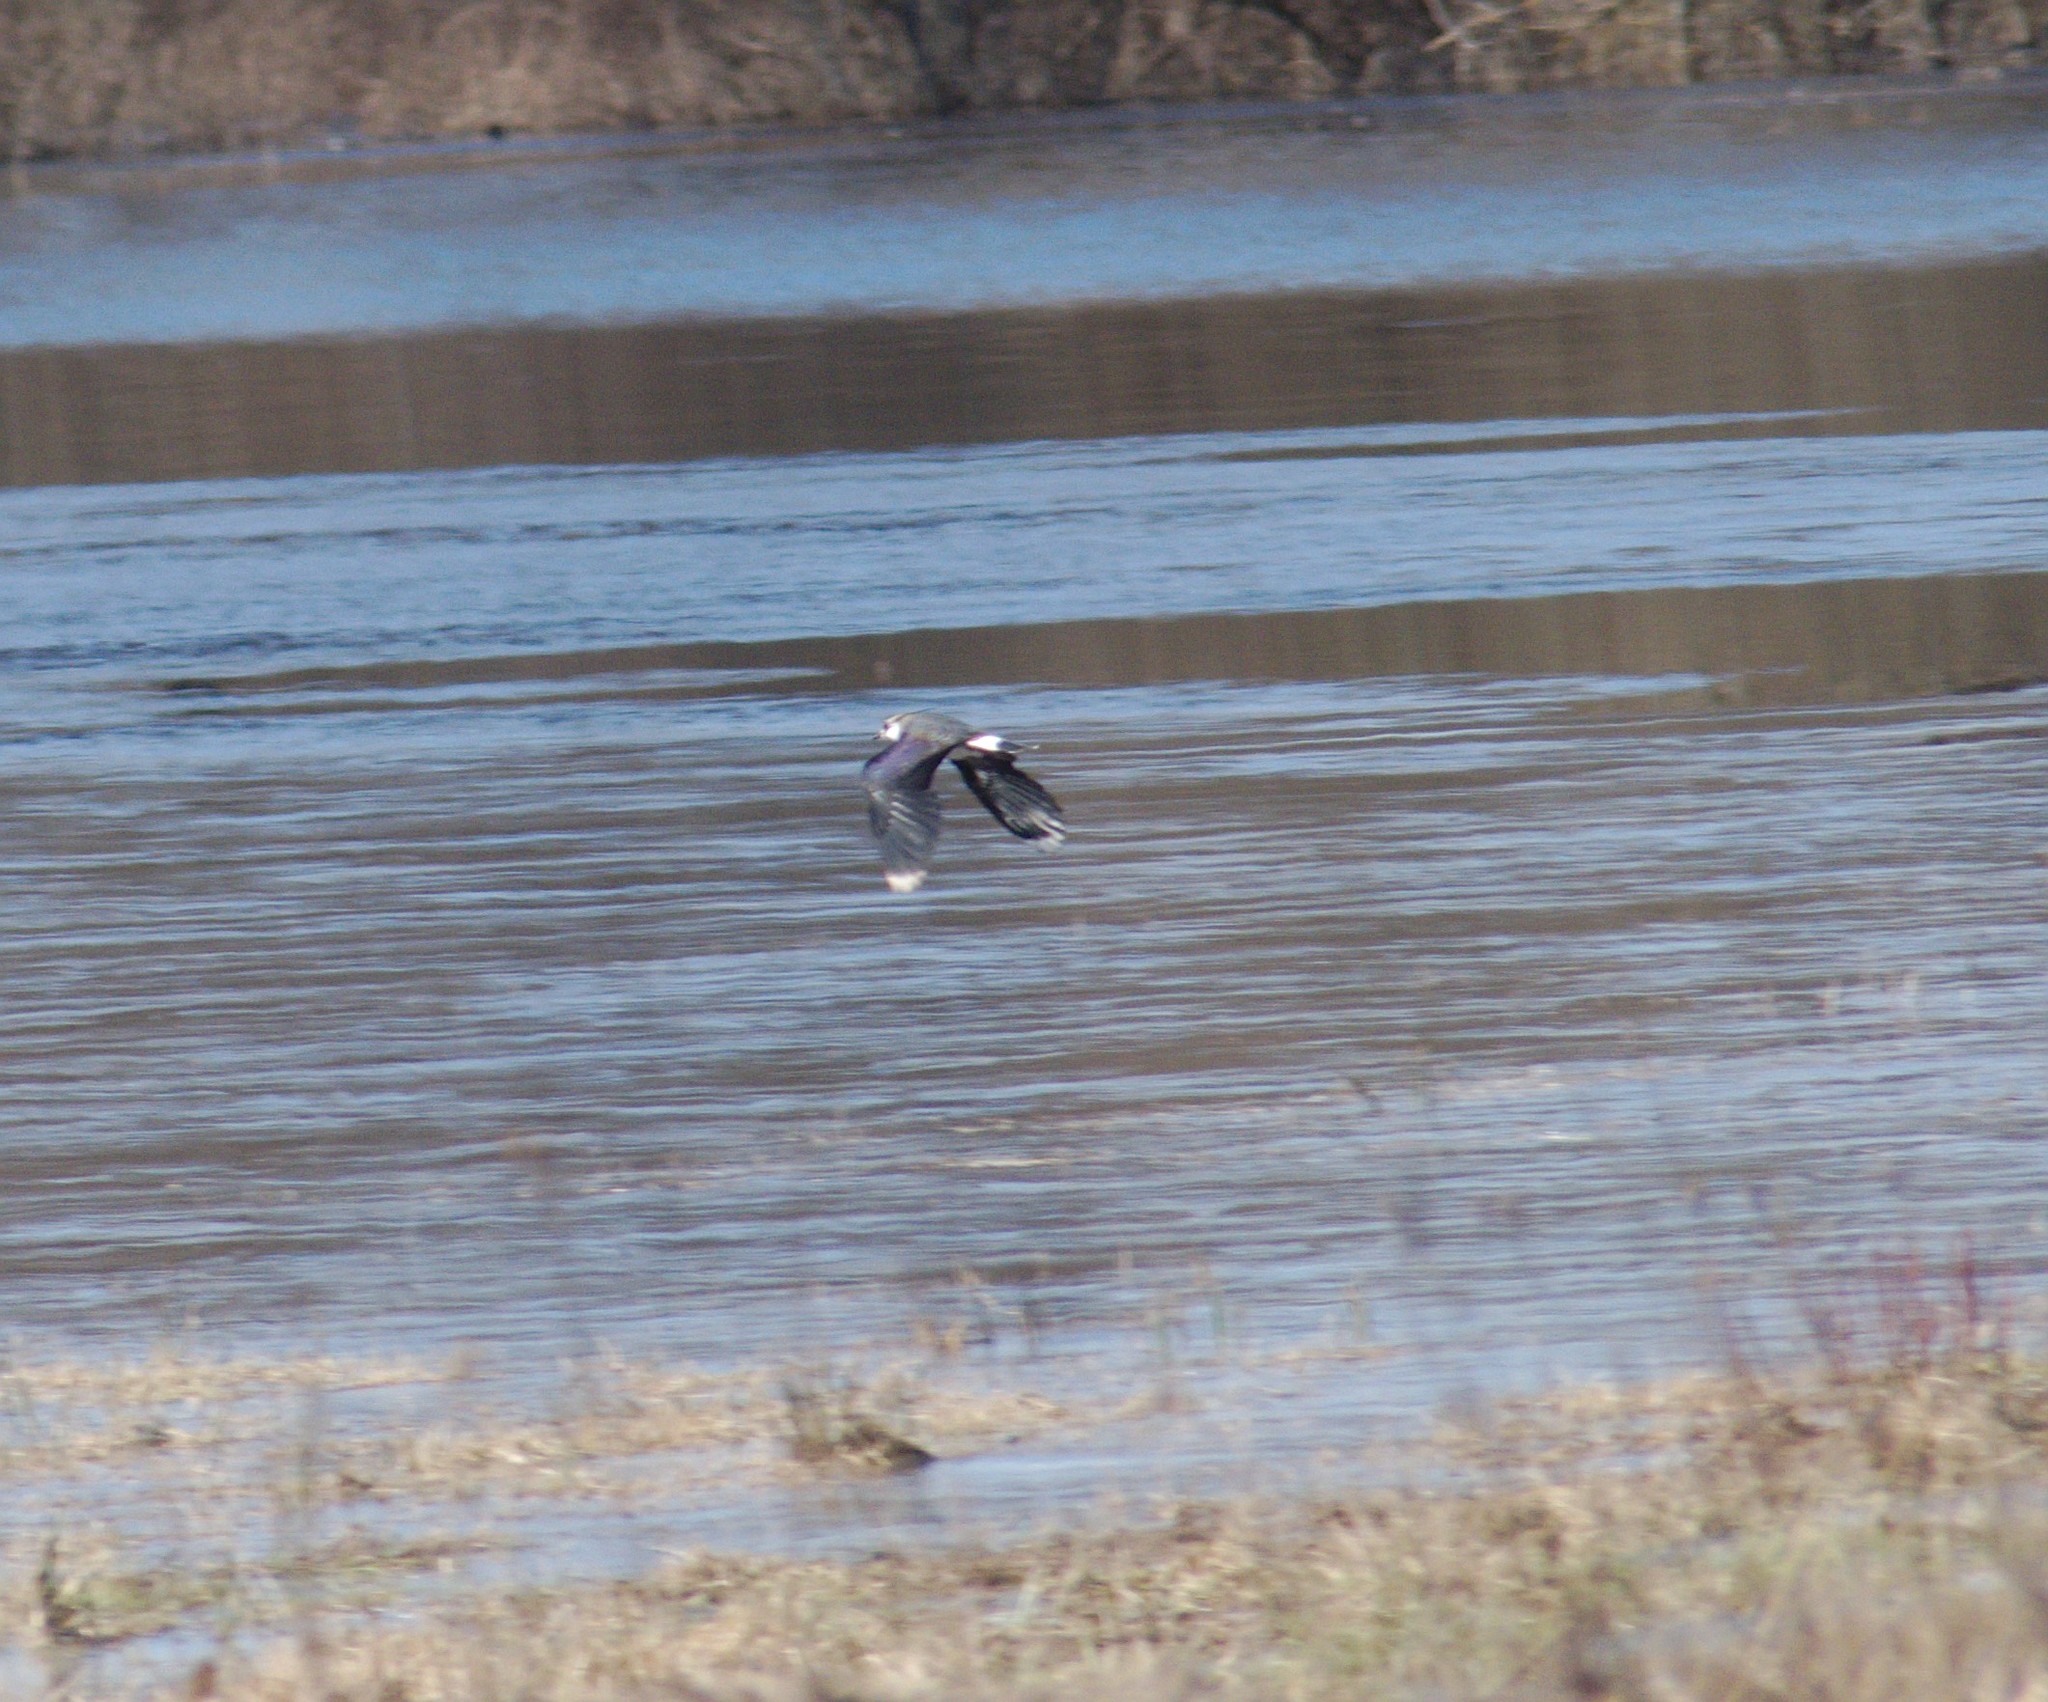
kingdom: Animalia
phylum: Chordata
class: Aves
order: Charadriiformes
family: Charadriidae
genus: Vanellus
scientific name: Vanellus vanellus
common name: Northern lapwing
